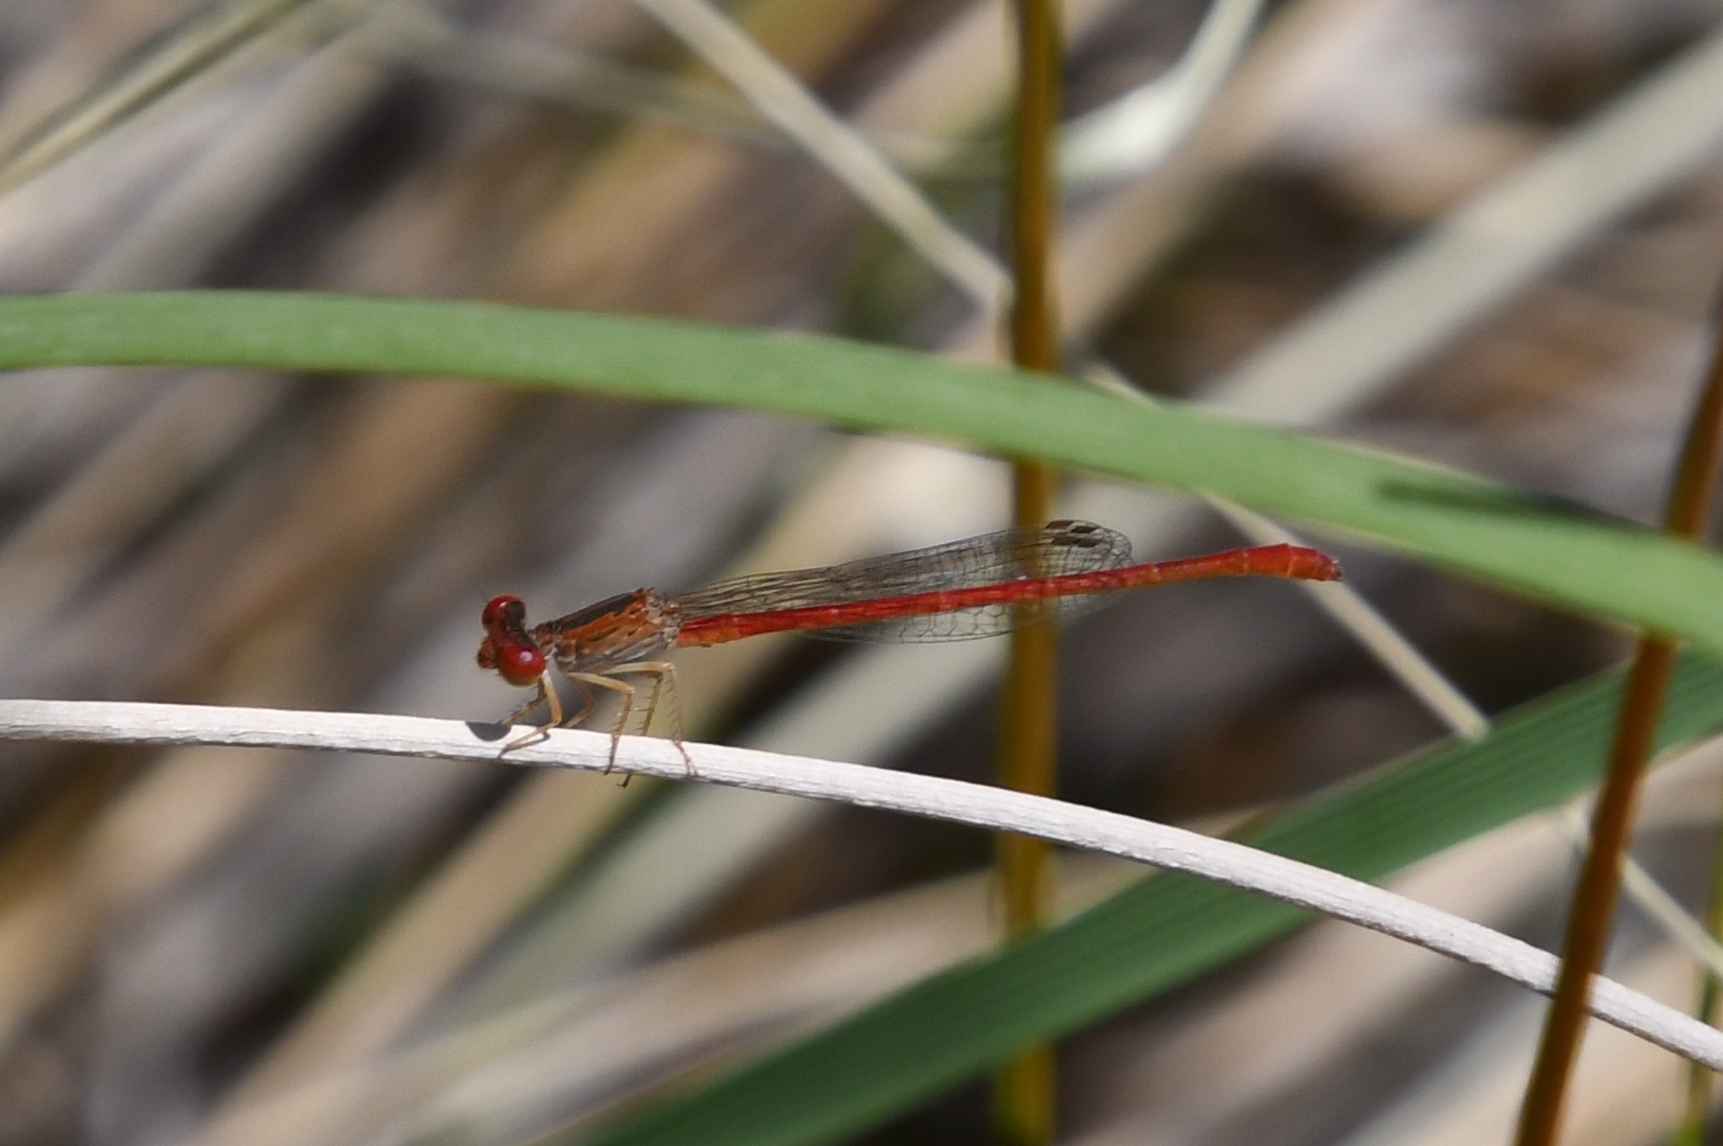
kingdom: Animalia
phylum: Arthropoda
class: Insecta
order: Odonata
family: Coenagrionidae
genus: Telebasis
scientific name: Telebasis salva
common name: Desert firetail
